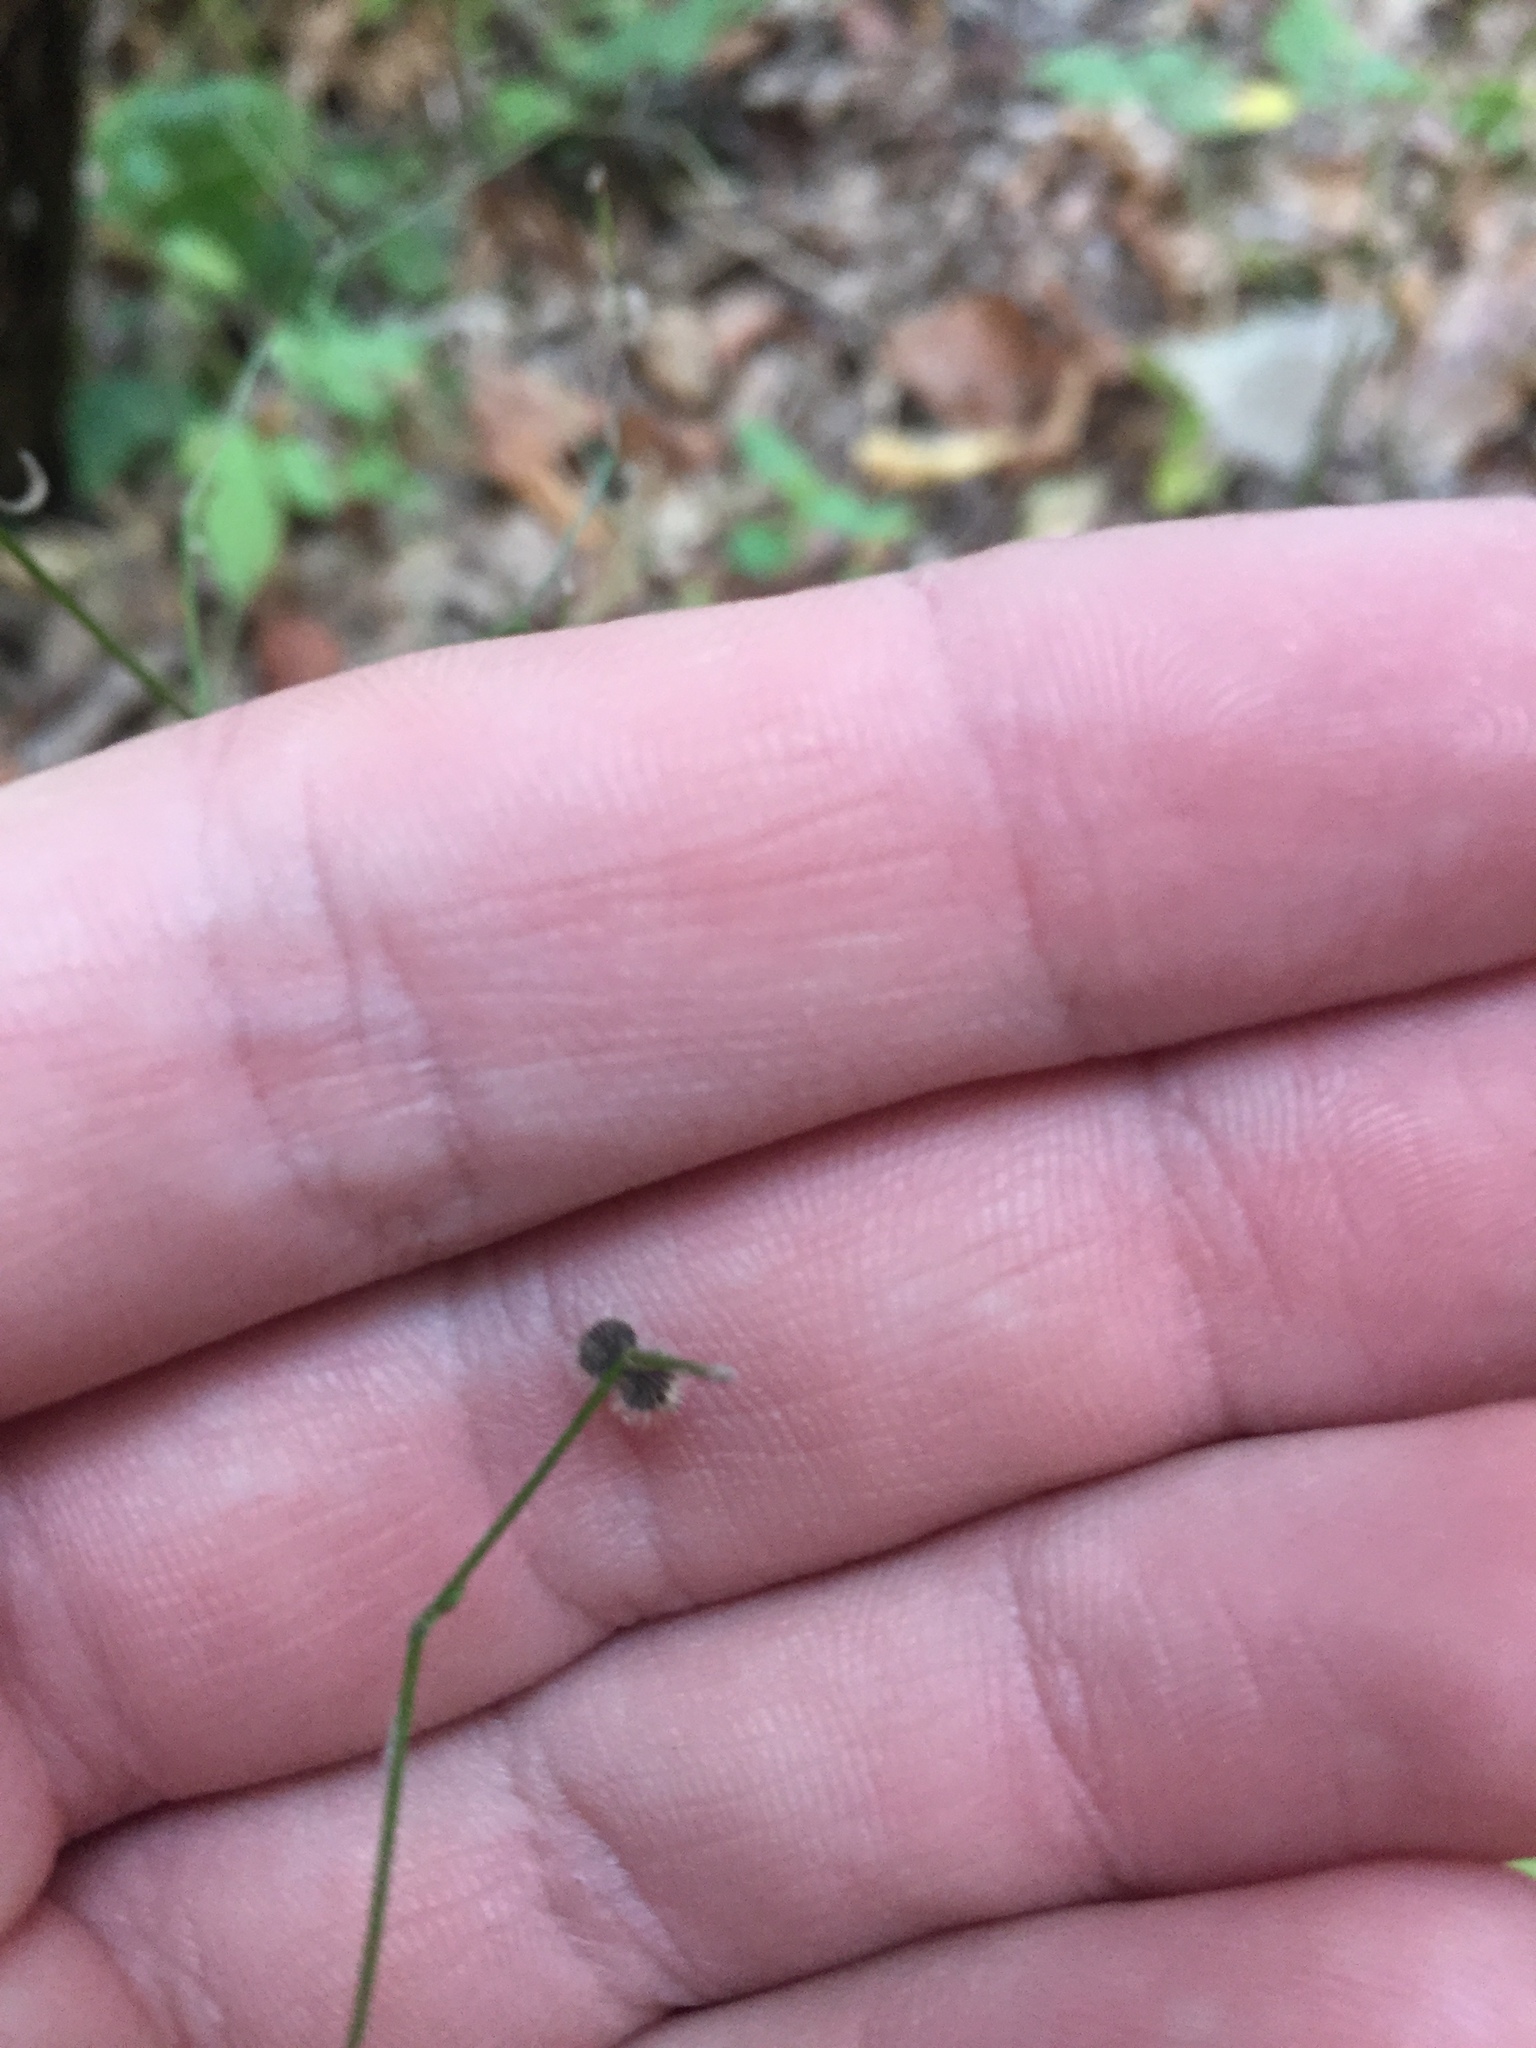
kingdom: Plantae
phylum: Tracheophyta
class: Magnoliopsida
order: Gentianales
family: Rubiaceae
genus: Galium
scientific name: Galium circaezans
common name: Forest bedstraw
